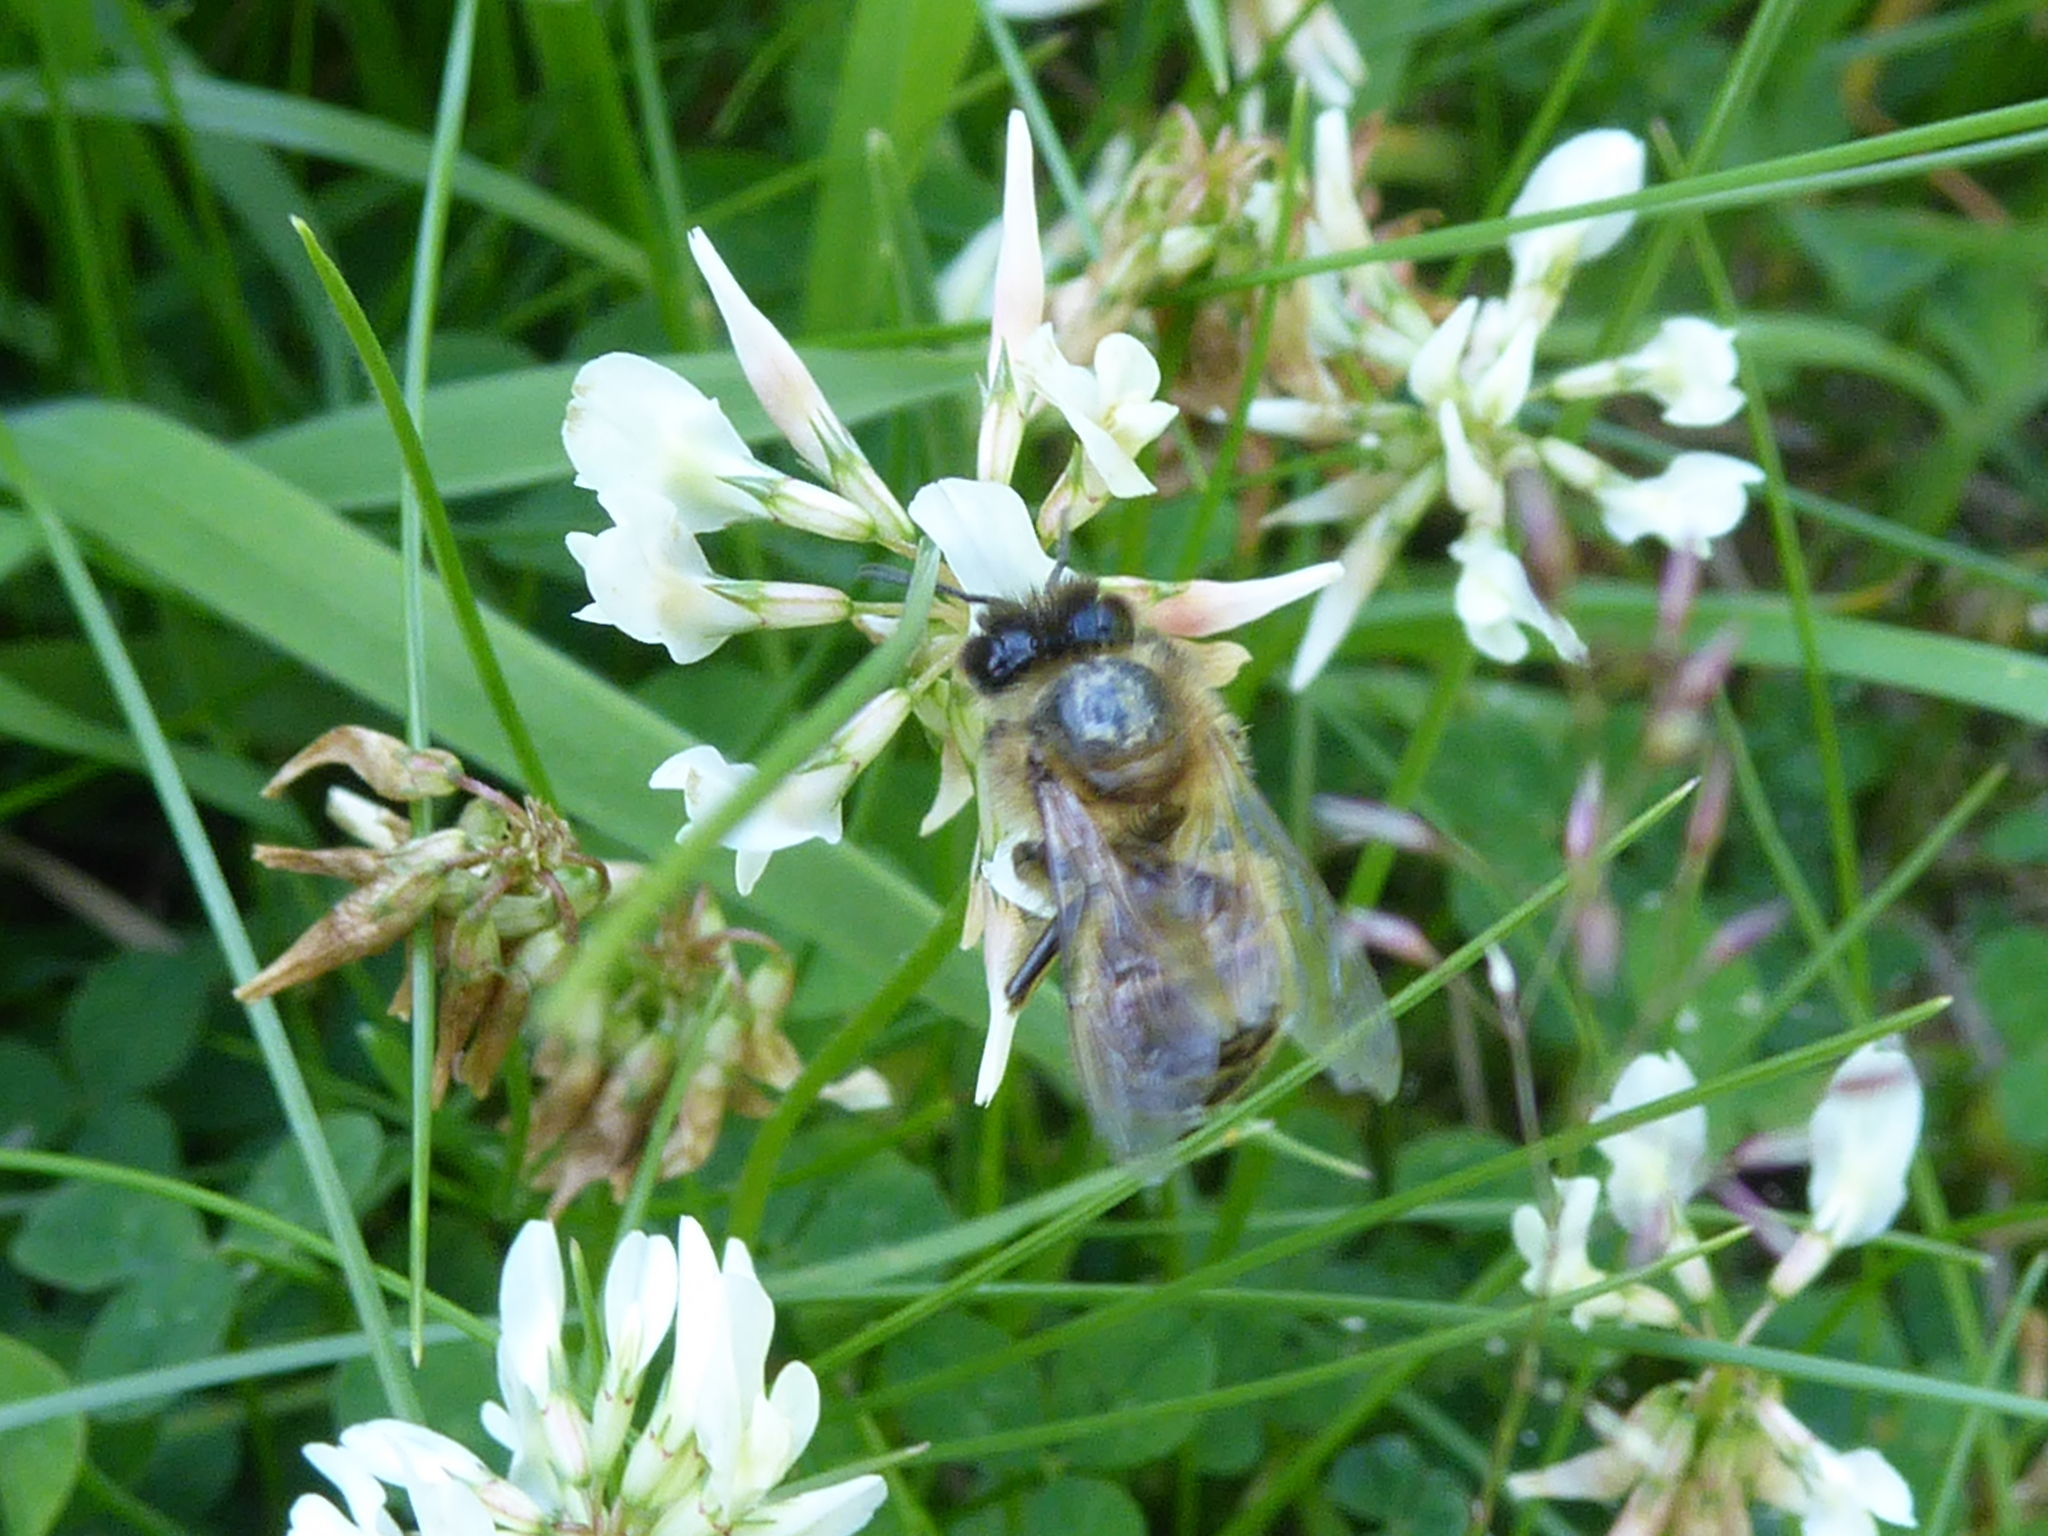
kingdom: Animalia
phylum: Arthropoda
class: Insecta
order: Hymenoptera
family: Apidae
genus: Apis
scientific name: Apis mellifera
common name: Honey bee
